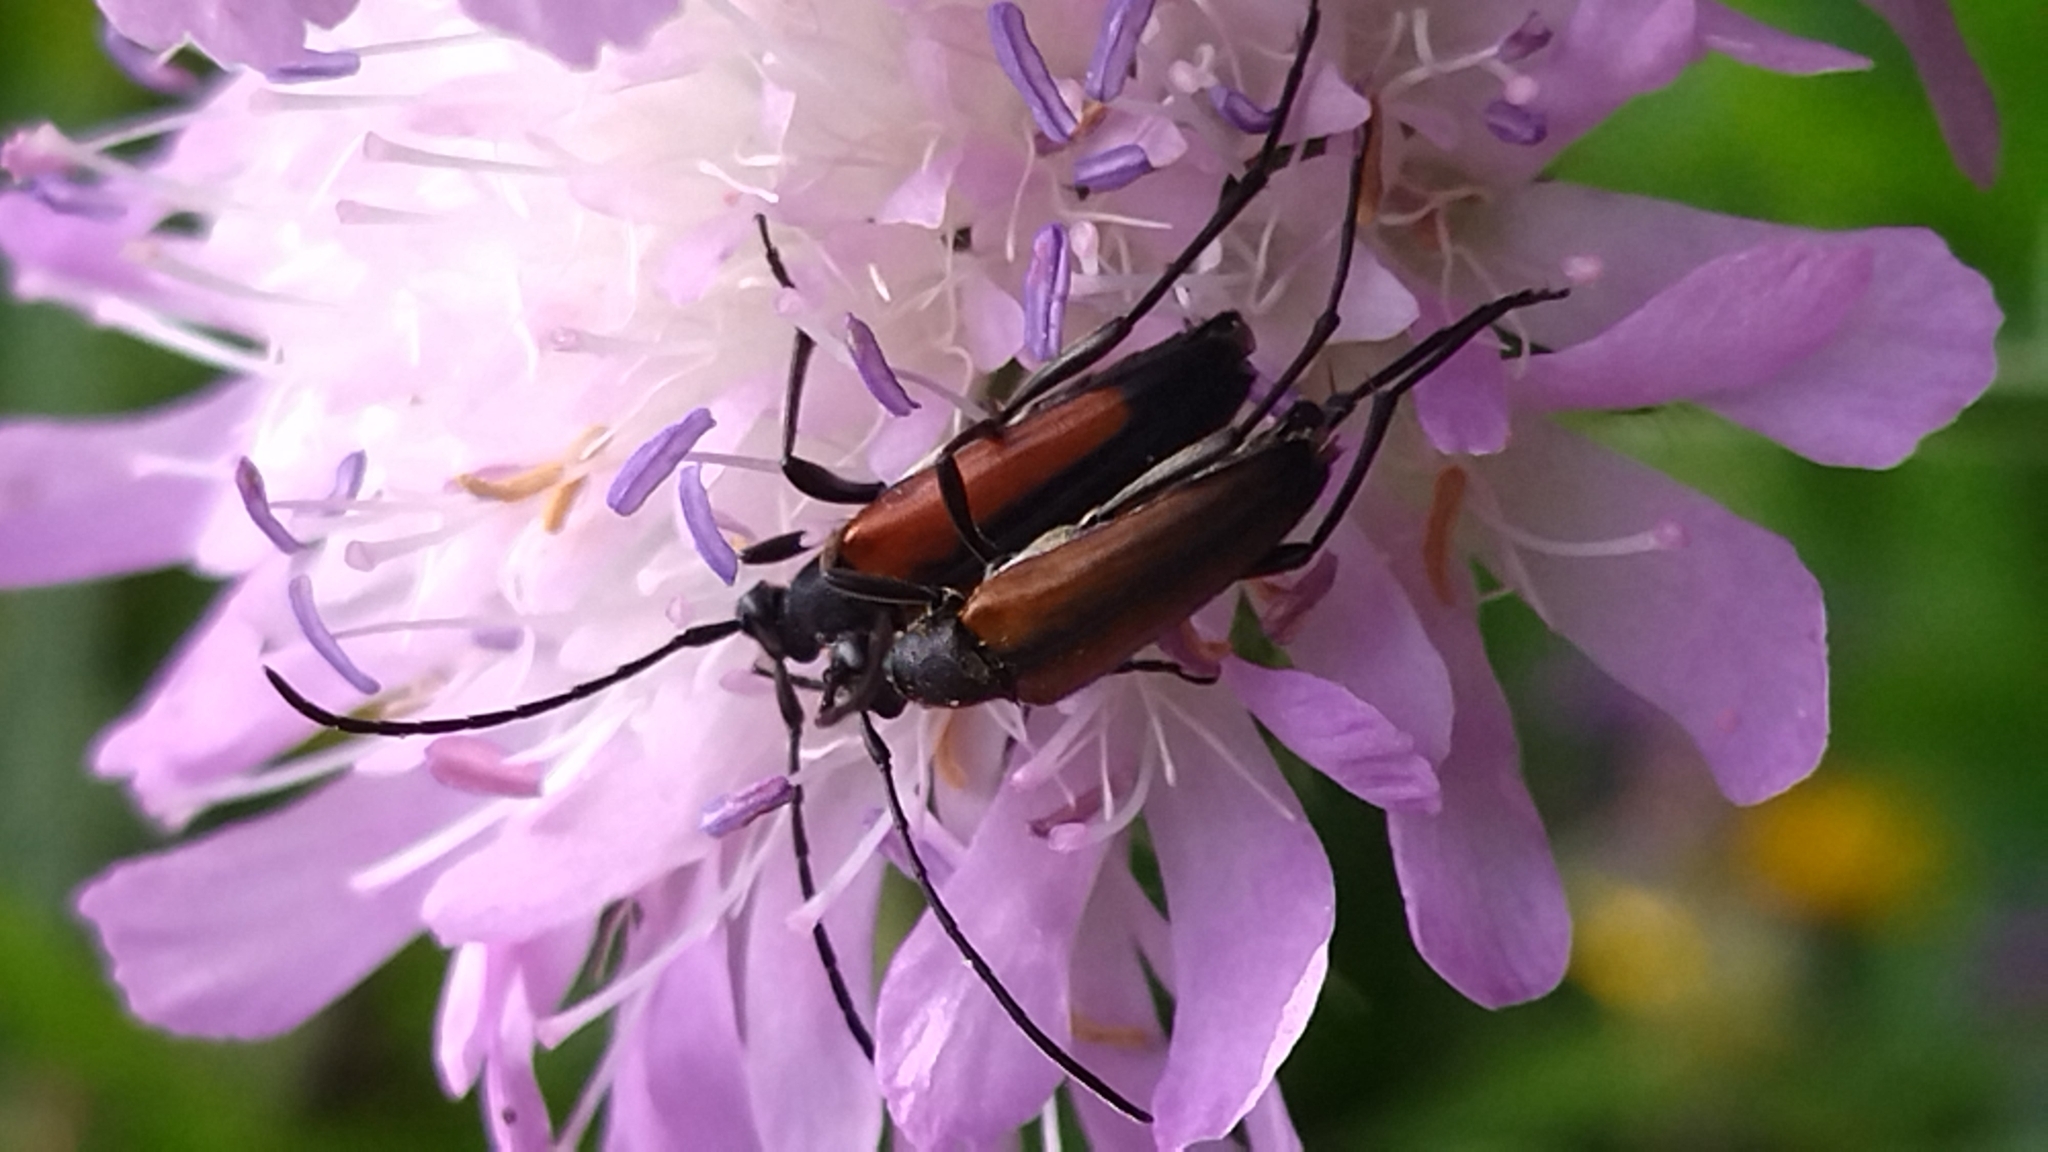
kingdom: Animalia
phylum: Arthropoda
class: Insecta
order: Coleoptera
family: Cerambycidae
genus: Stenurella
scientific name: Stenurella melanura
